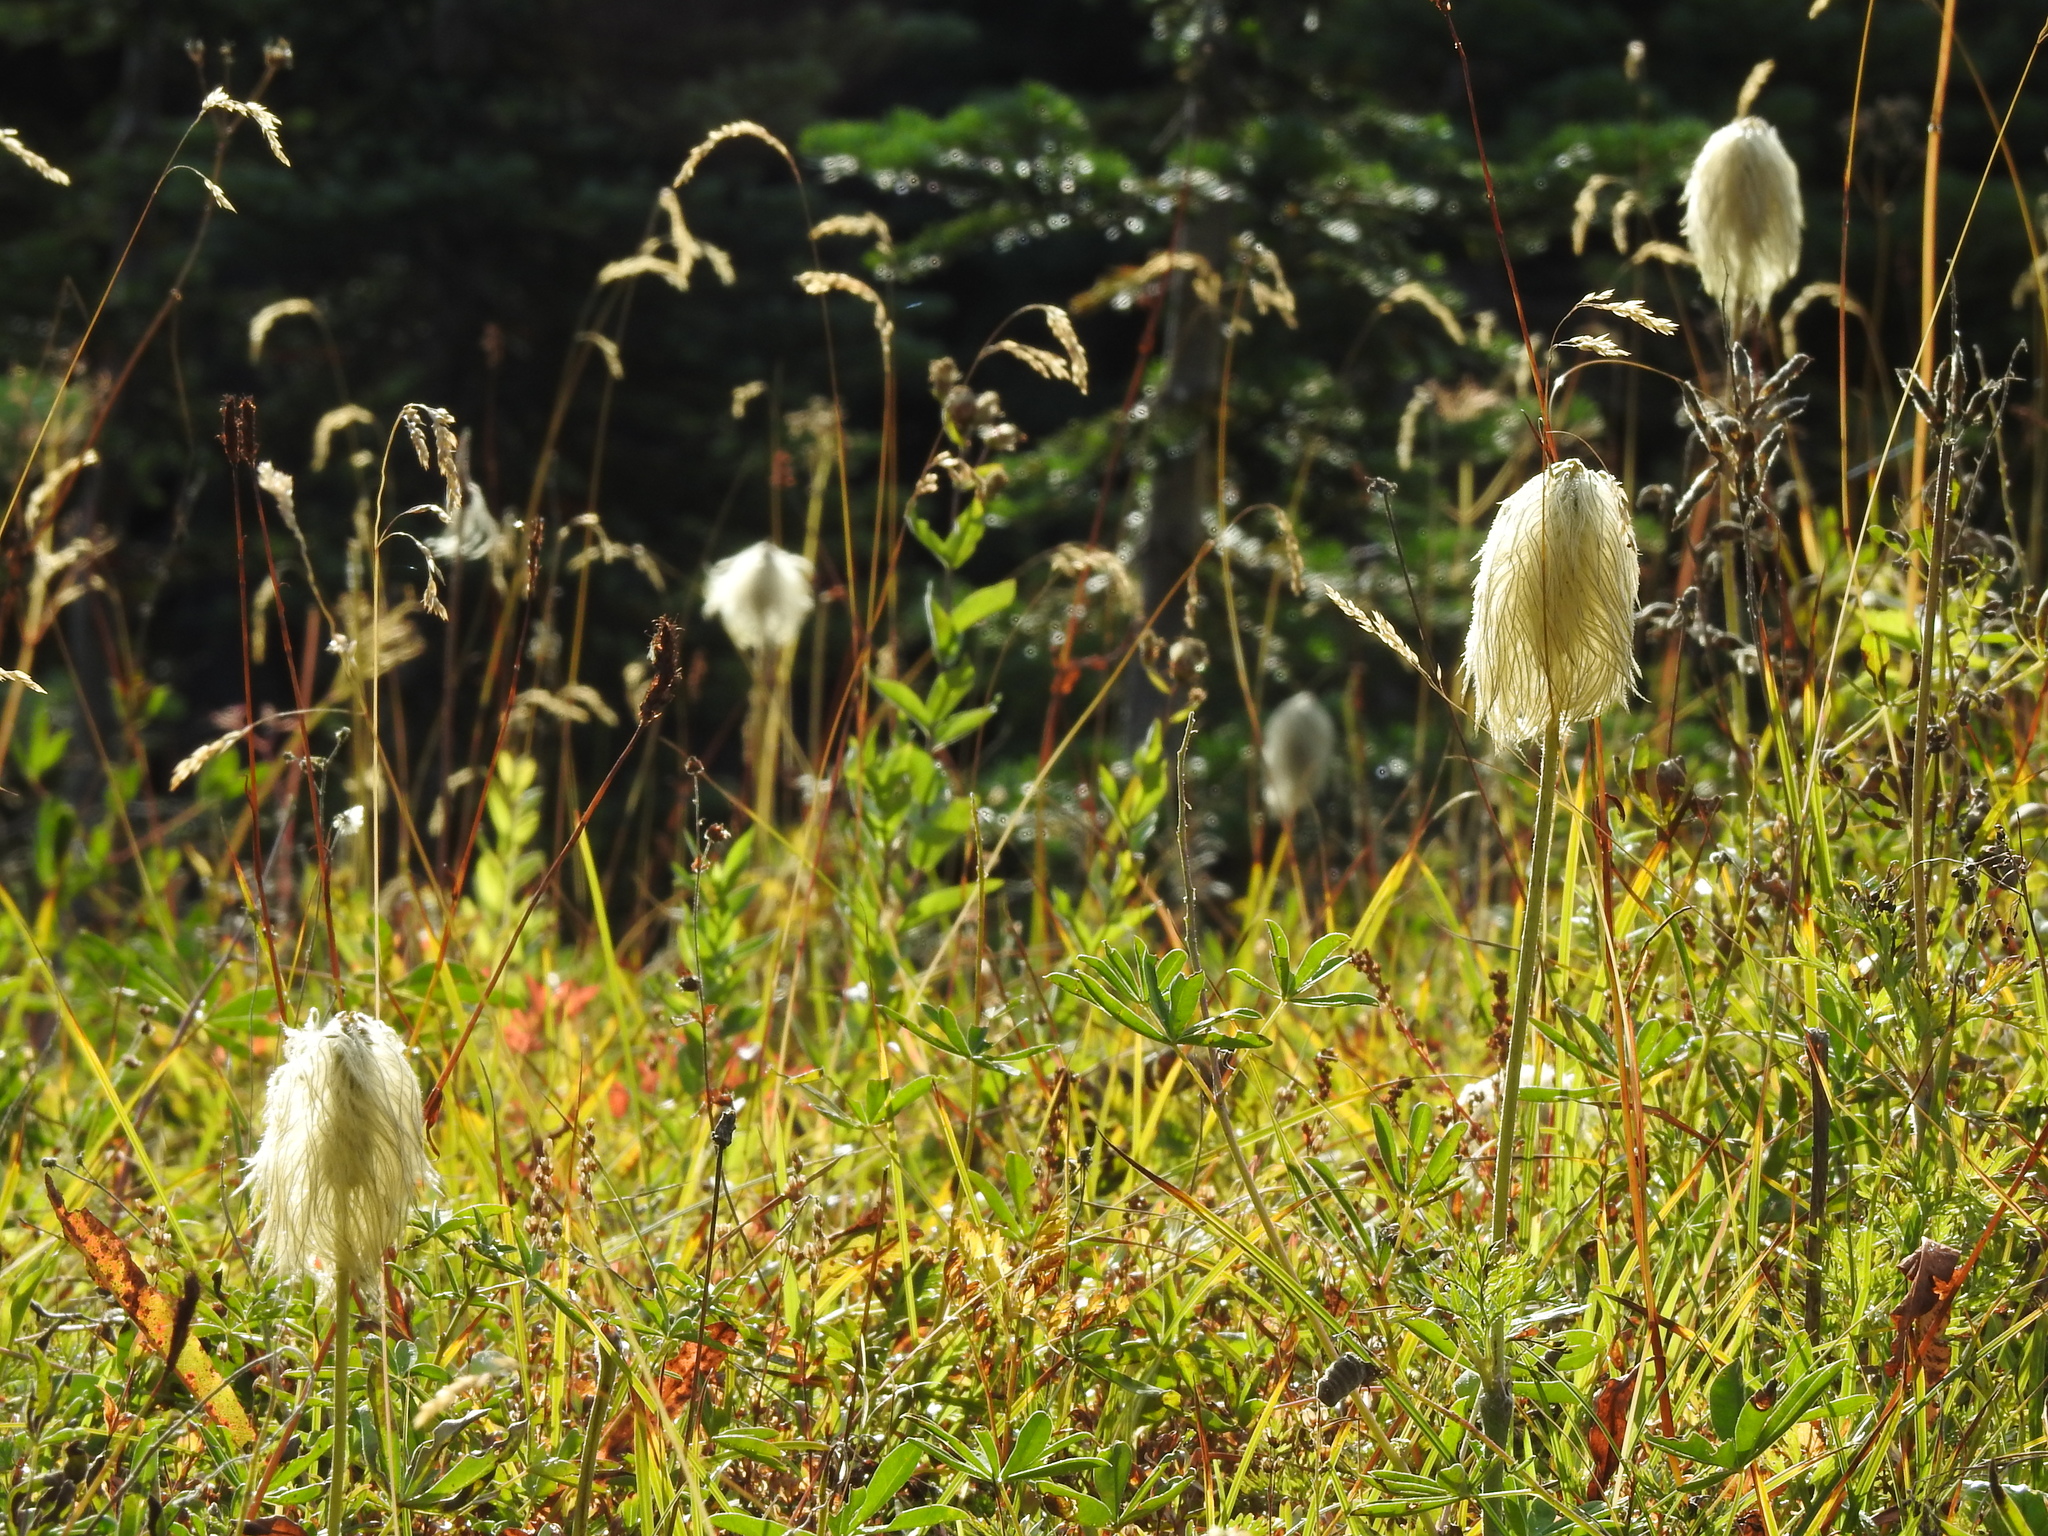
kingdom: Plantae
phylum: Tracheophyta
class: Magnoliopsida
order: Ranunculales
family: Ranunculaceae
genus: Pulsatilla
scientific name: Pulsatilla occidentalis
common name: Mountain pasqueflower
